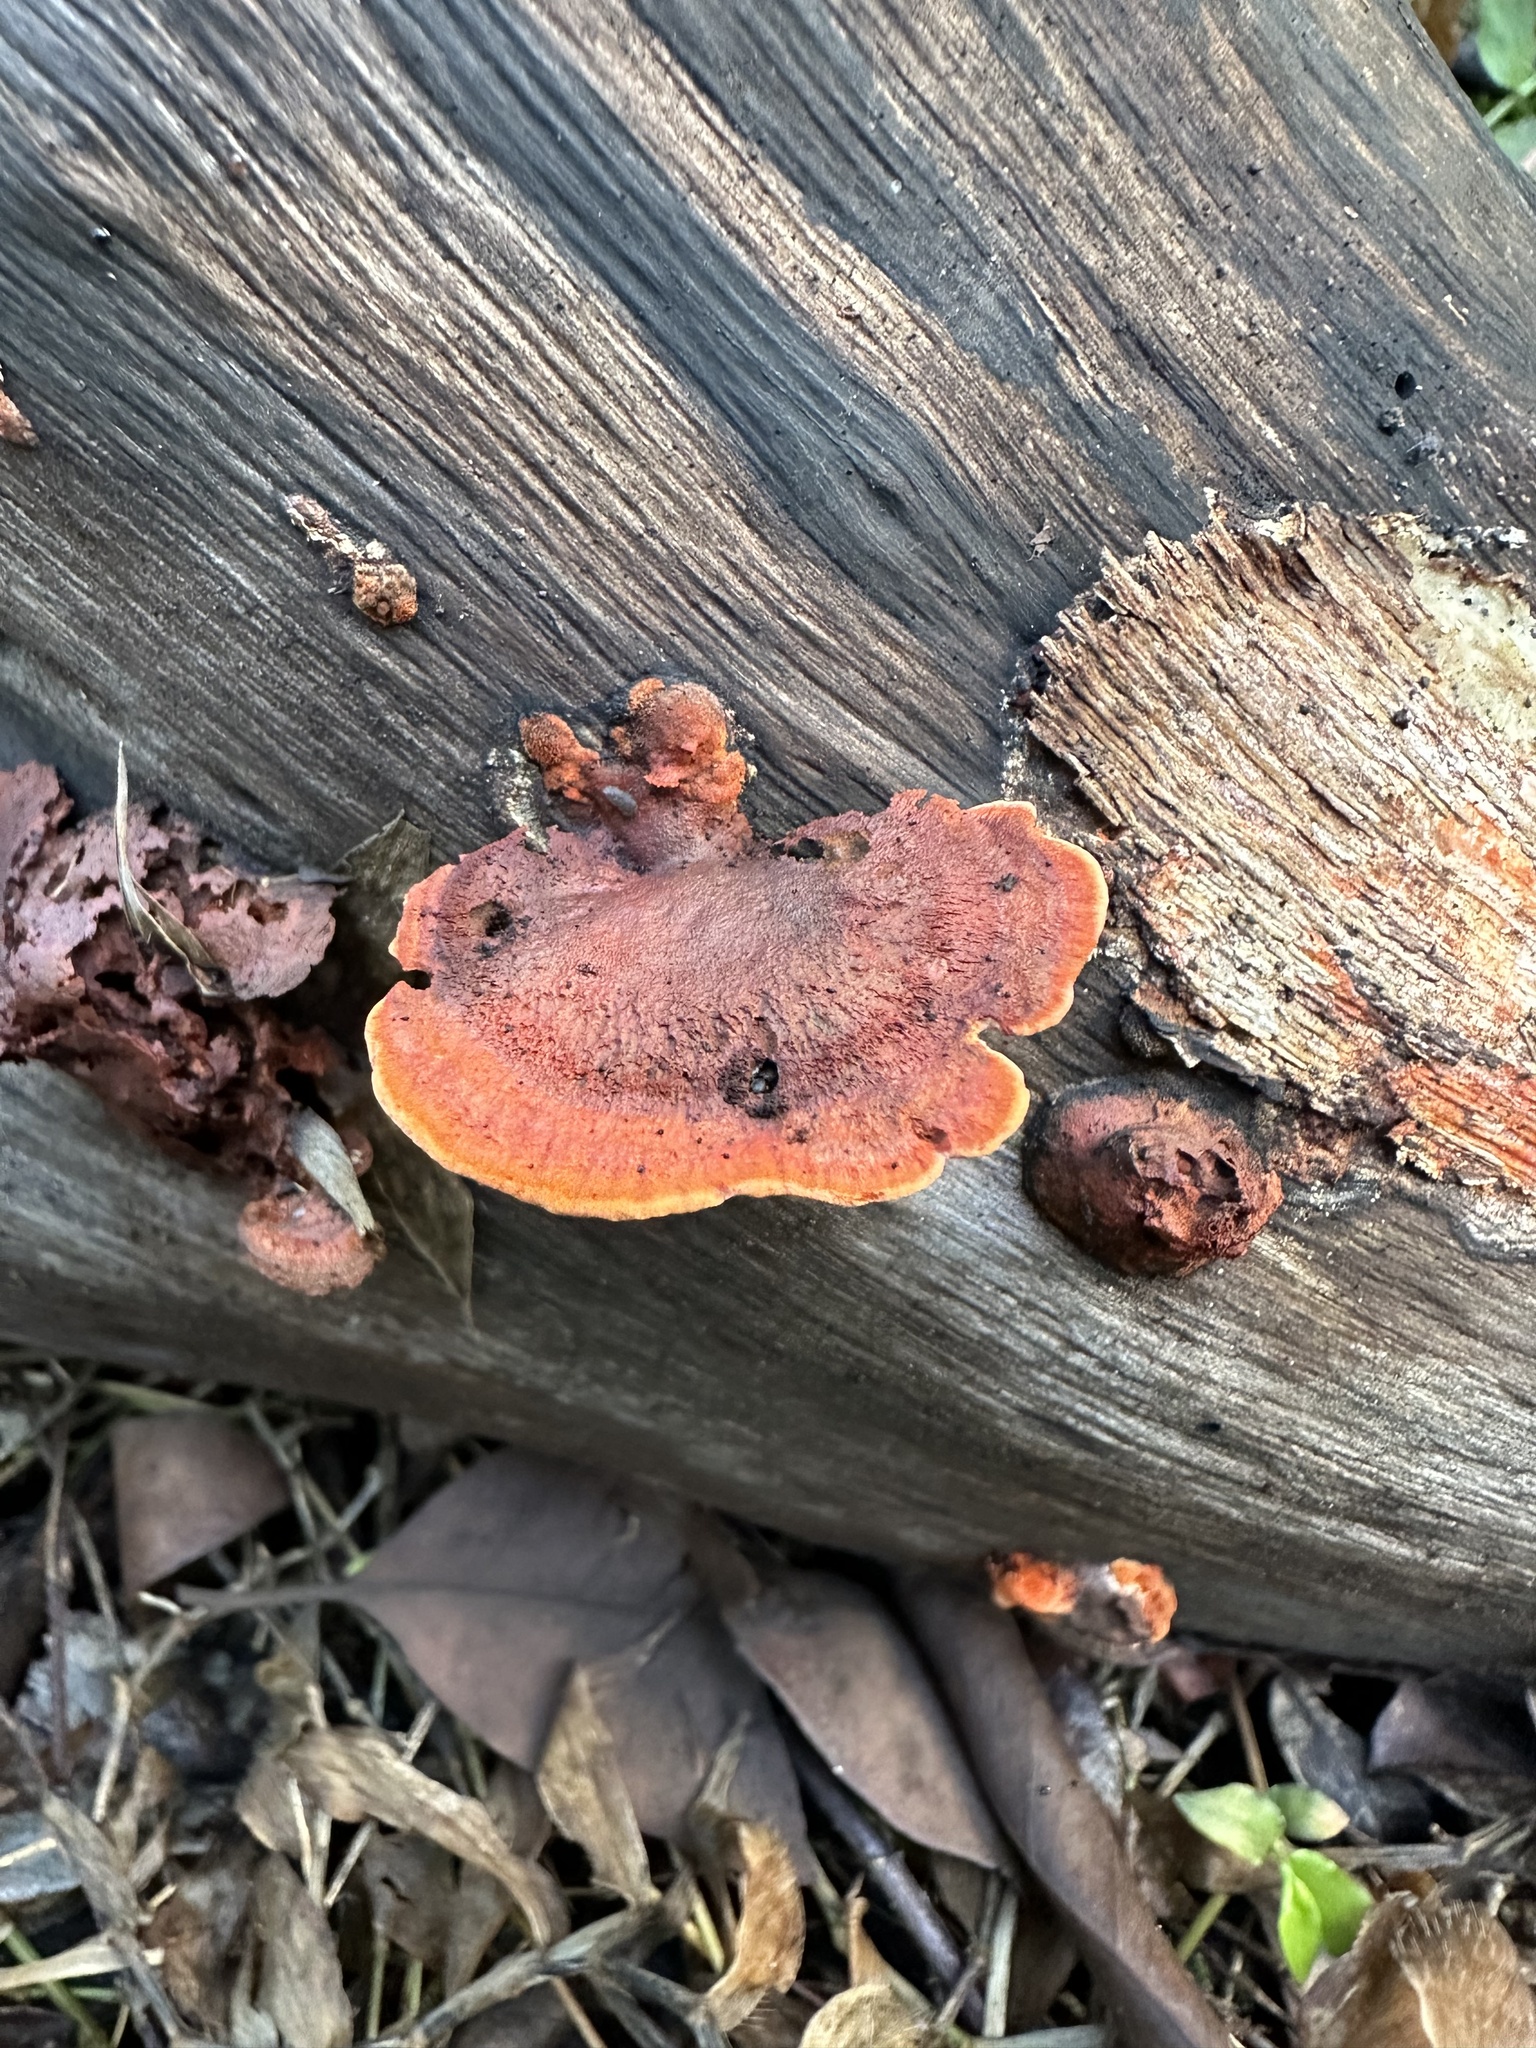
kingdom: Fungi
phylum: Basidiomycota
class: Agaricomycetes
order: Polyporales
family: Polyporaceae
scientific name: Polyporaceae
